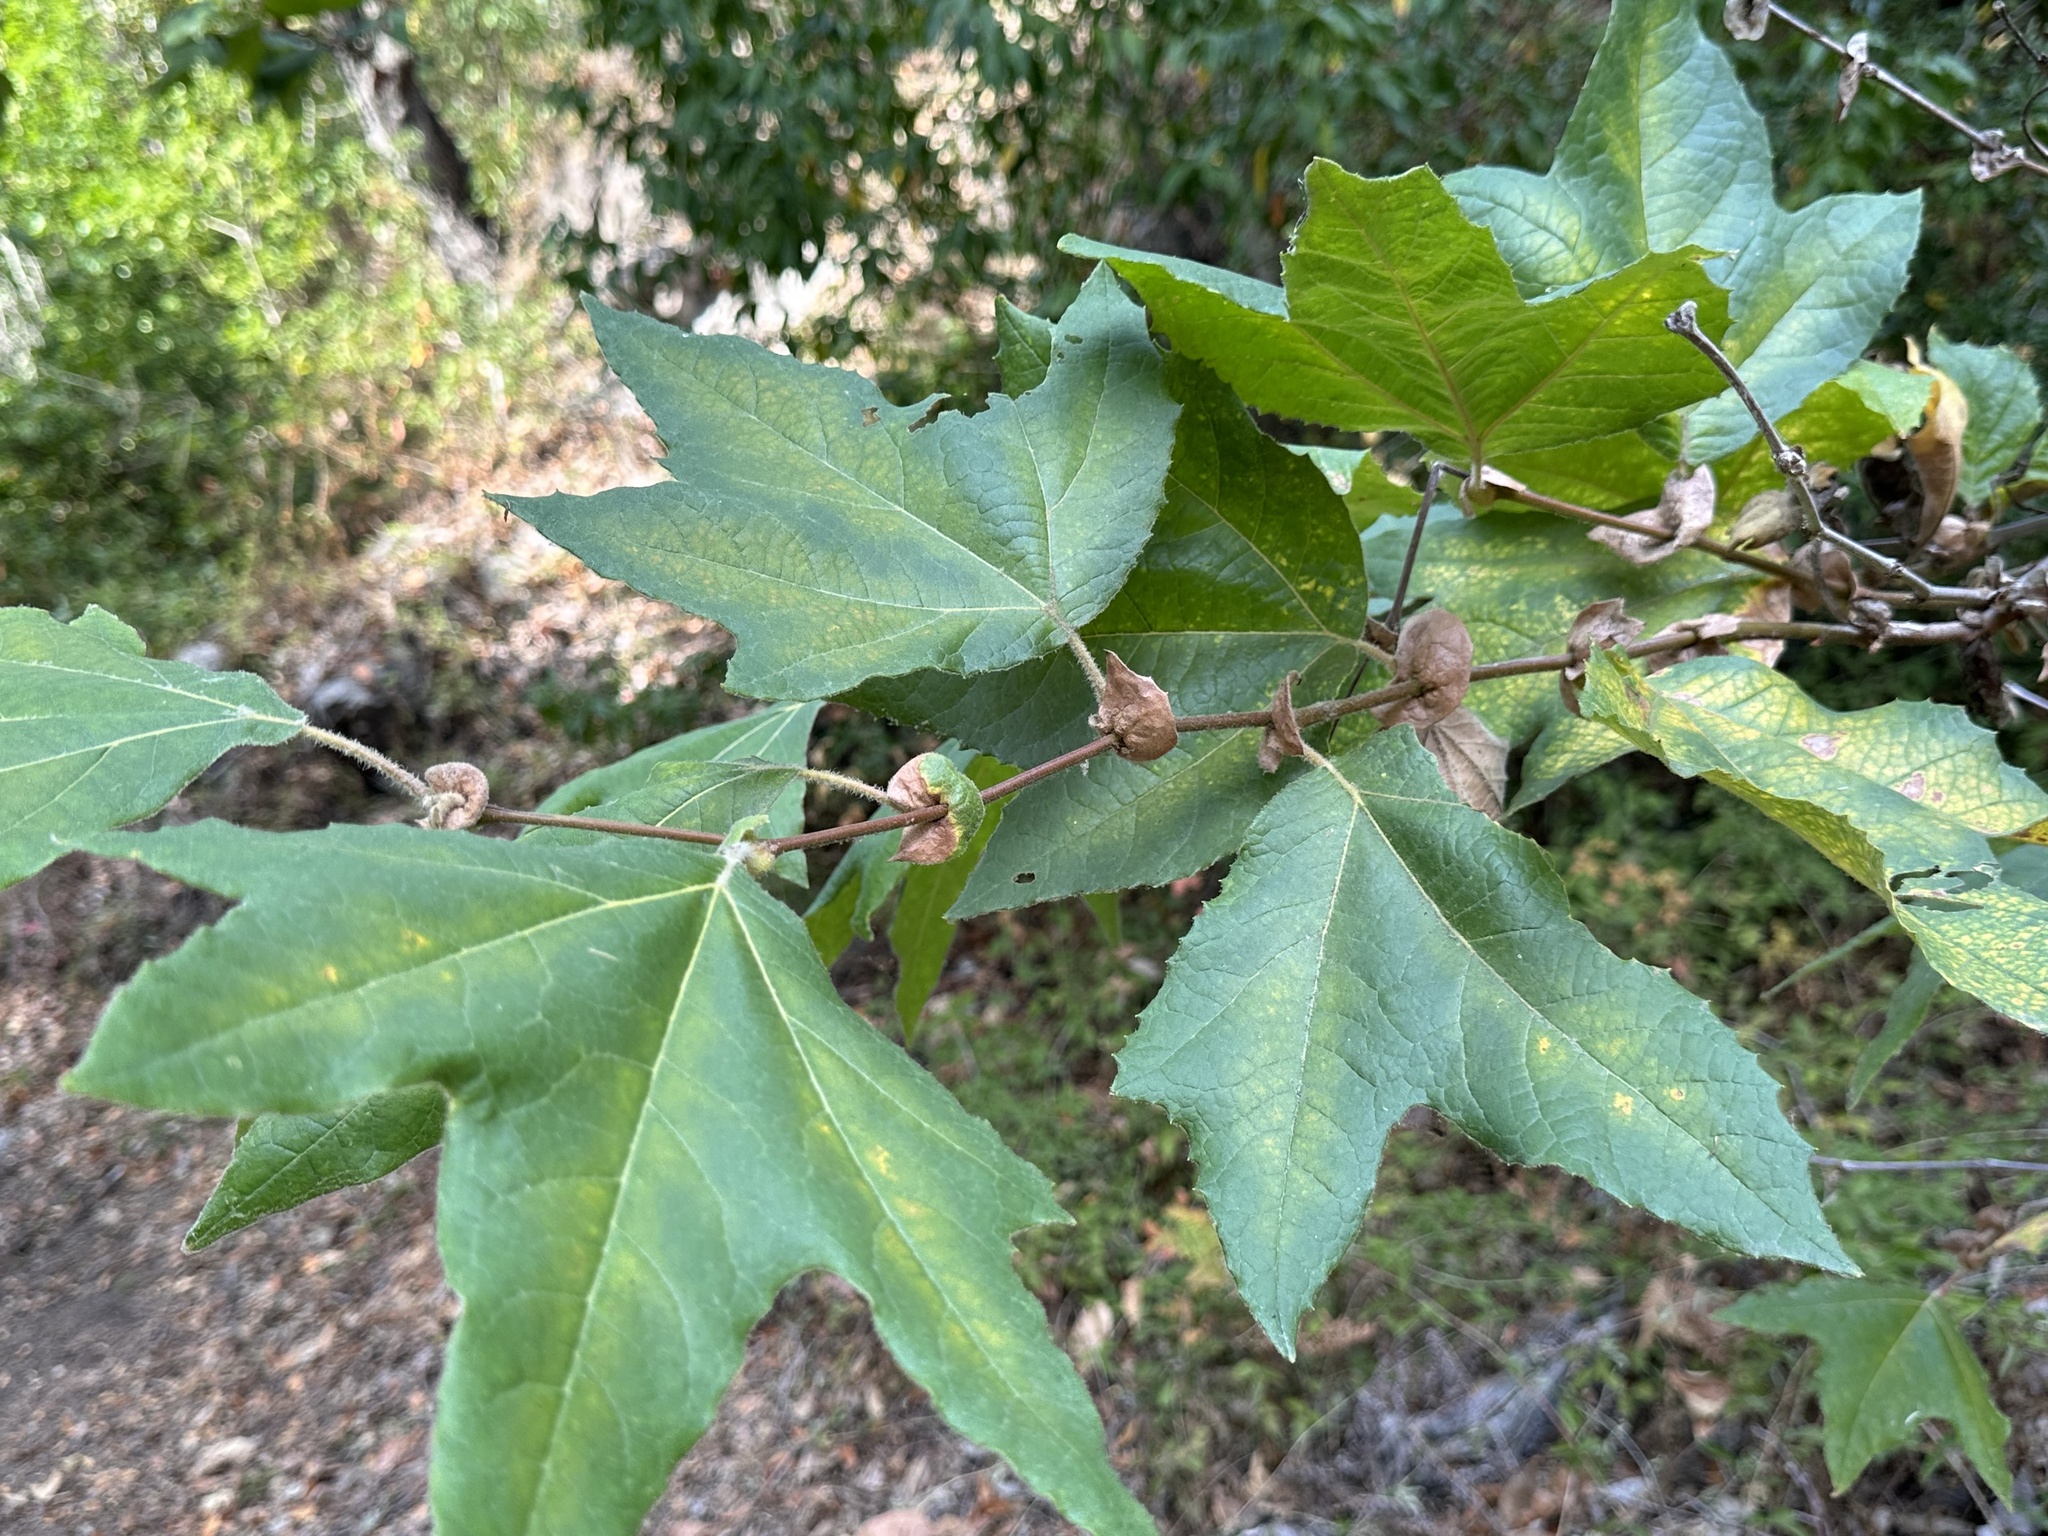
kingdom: Plantae
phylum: Tracheophyta
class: Magnoliopsida
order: Proteales
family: Platanaceae
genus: Platanus
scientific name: Platanus racemosa
